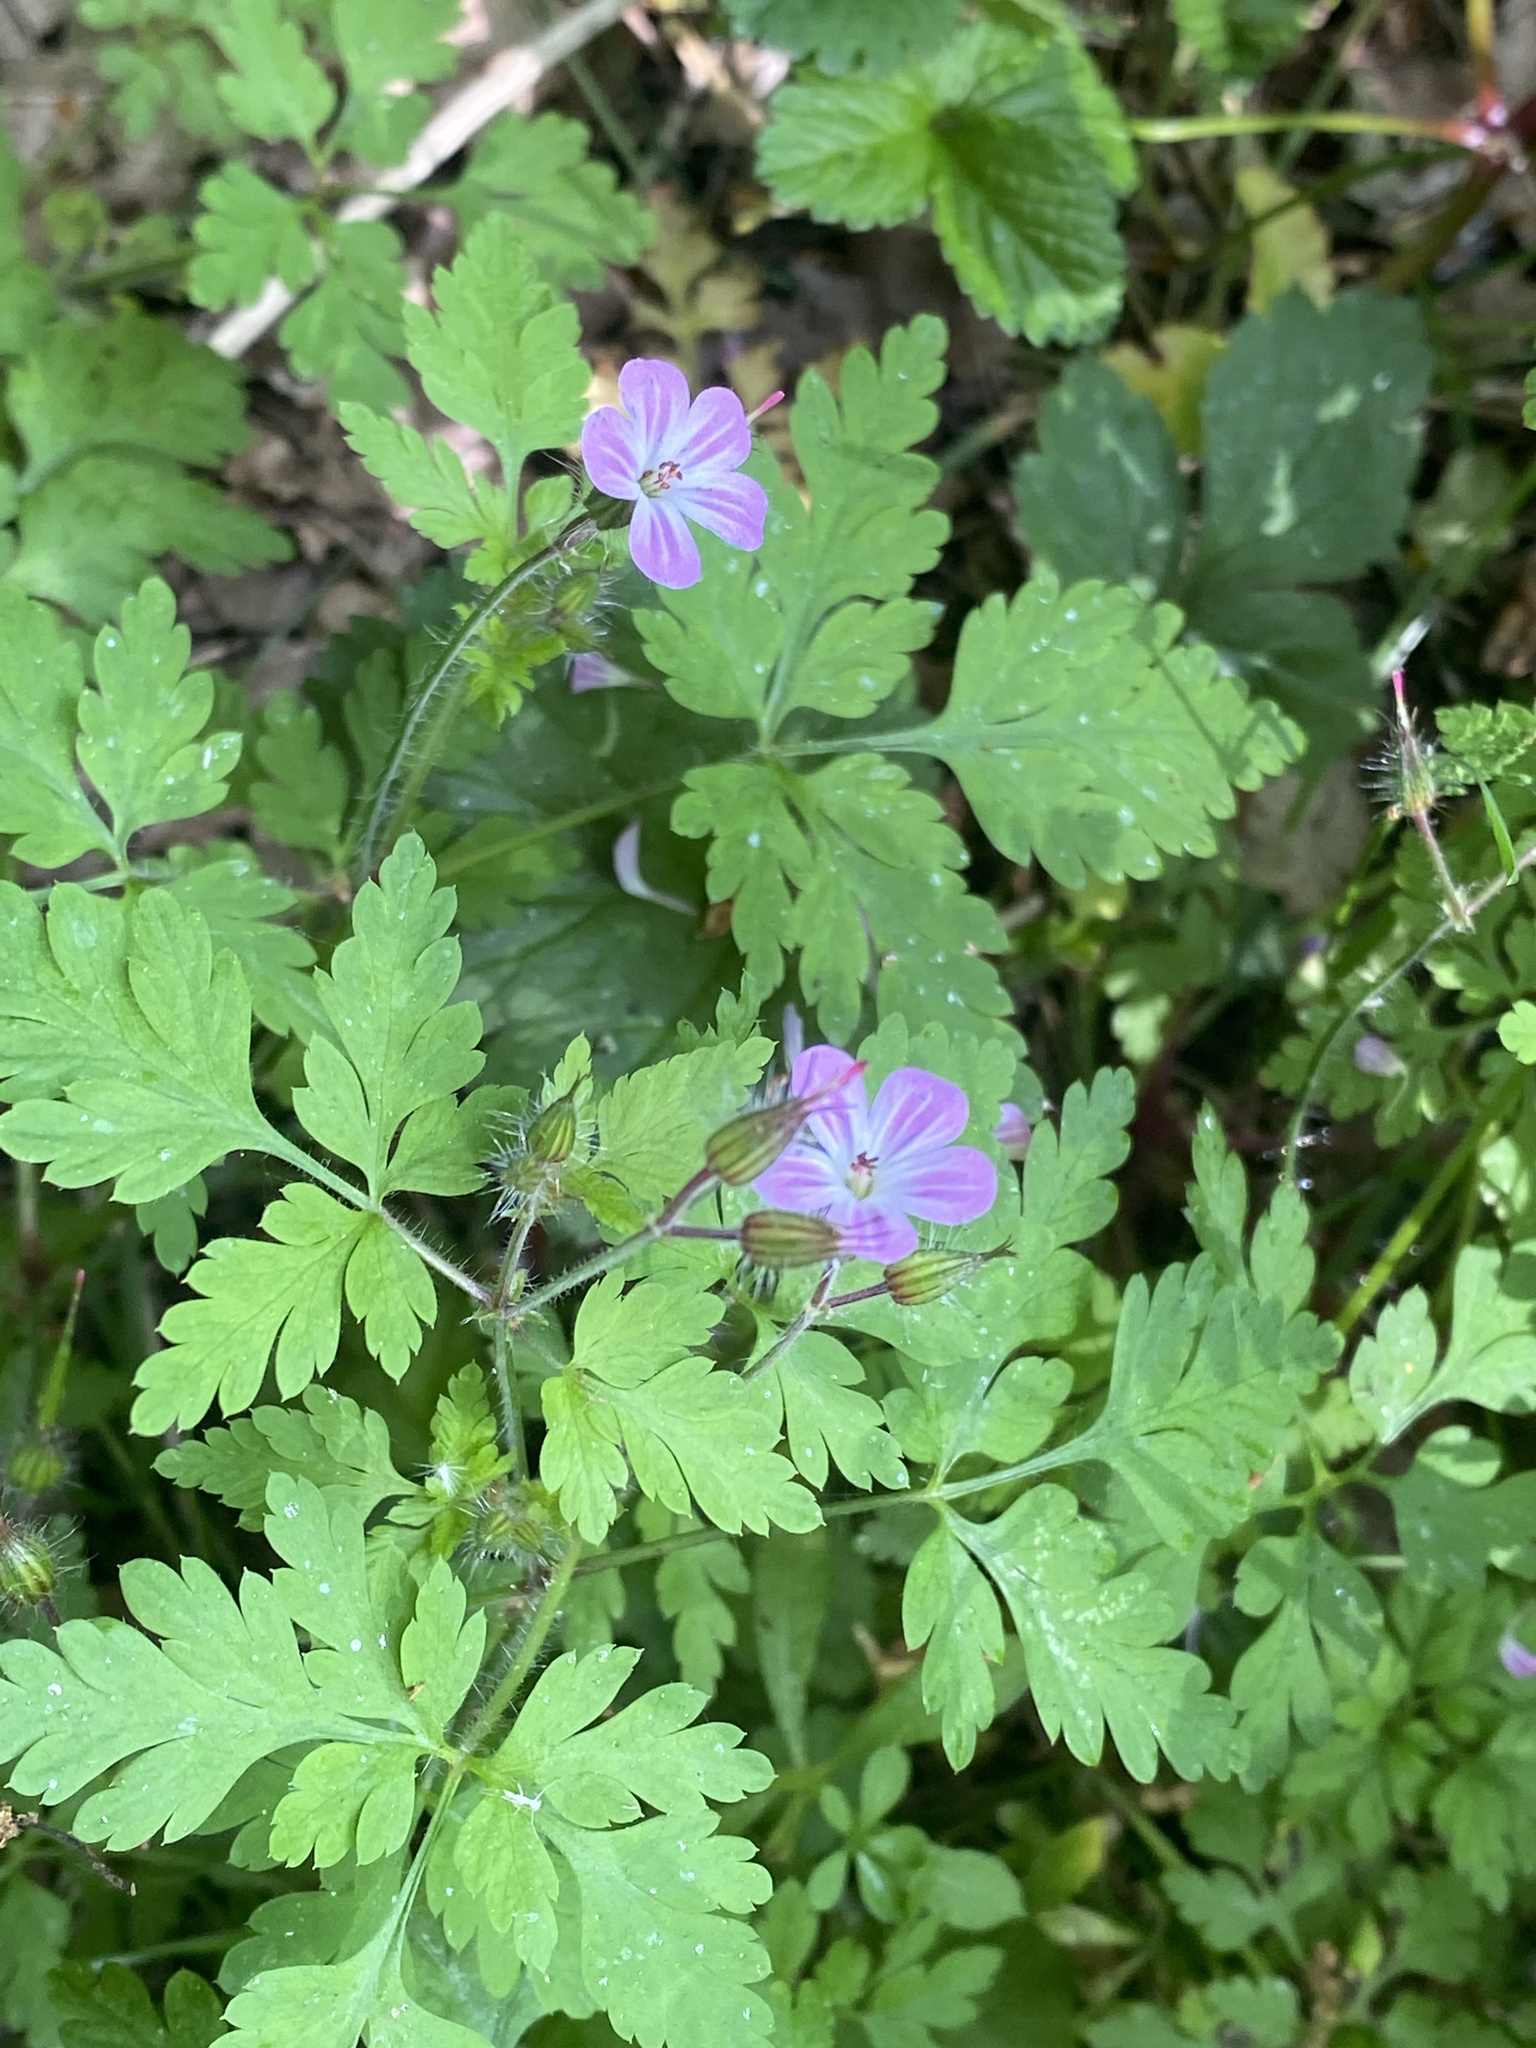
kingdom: Plantae
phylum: Tracheophyta
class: Magnoliopsida
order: Geraniales
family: Geraniaceae
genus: Geranium
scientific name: Geranium robertianum
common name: Herb-robert
